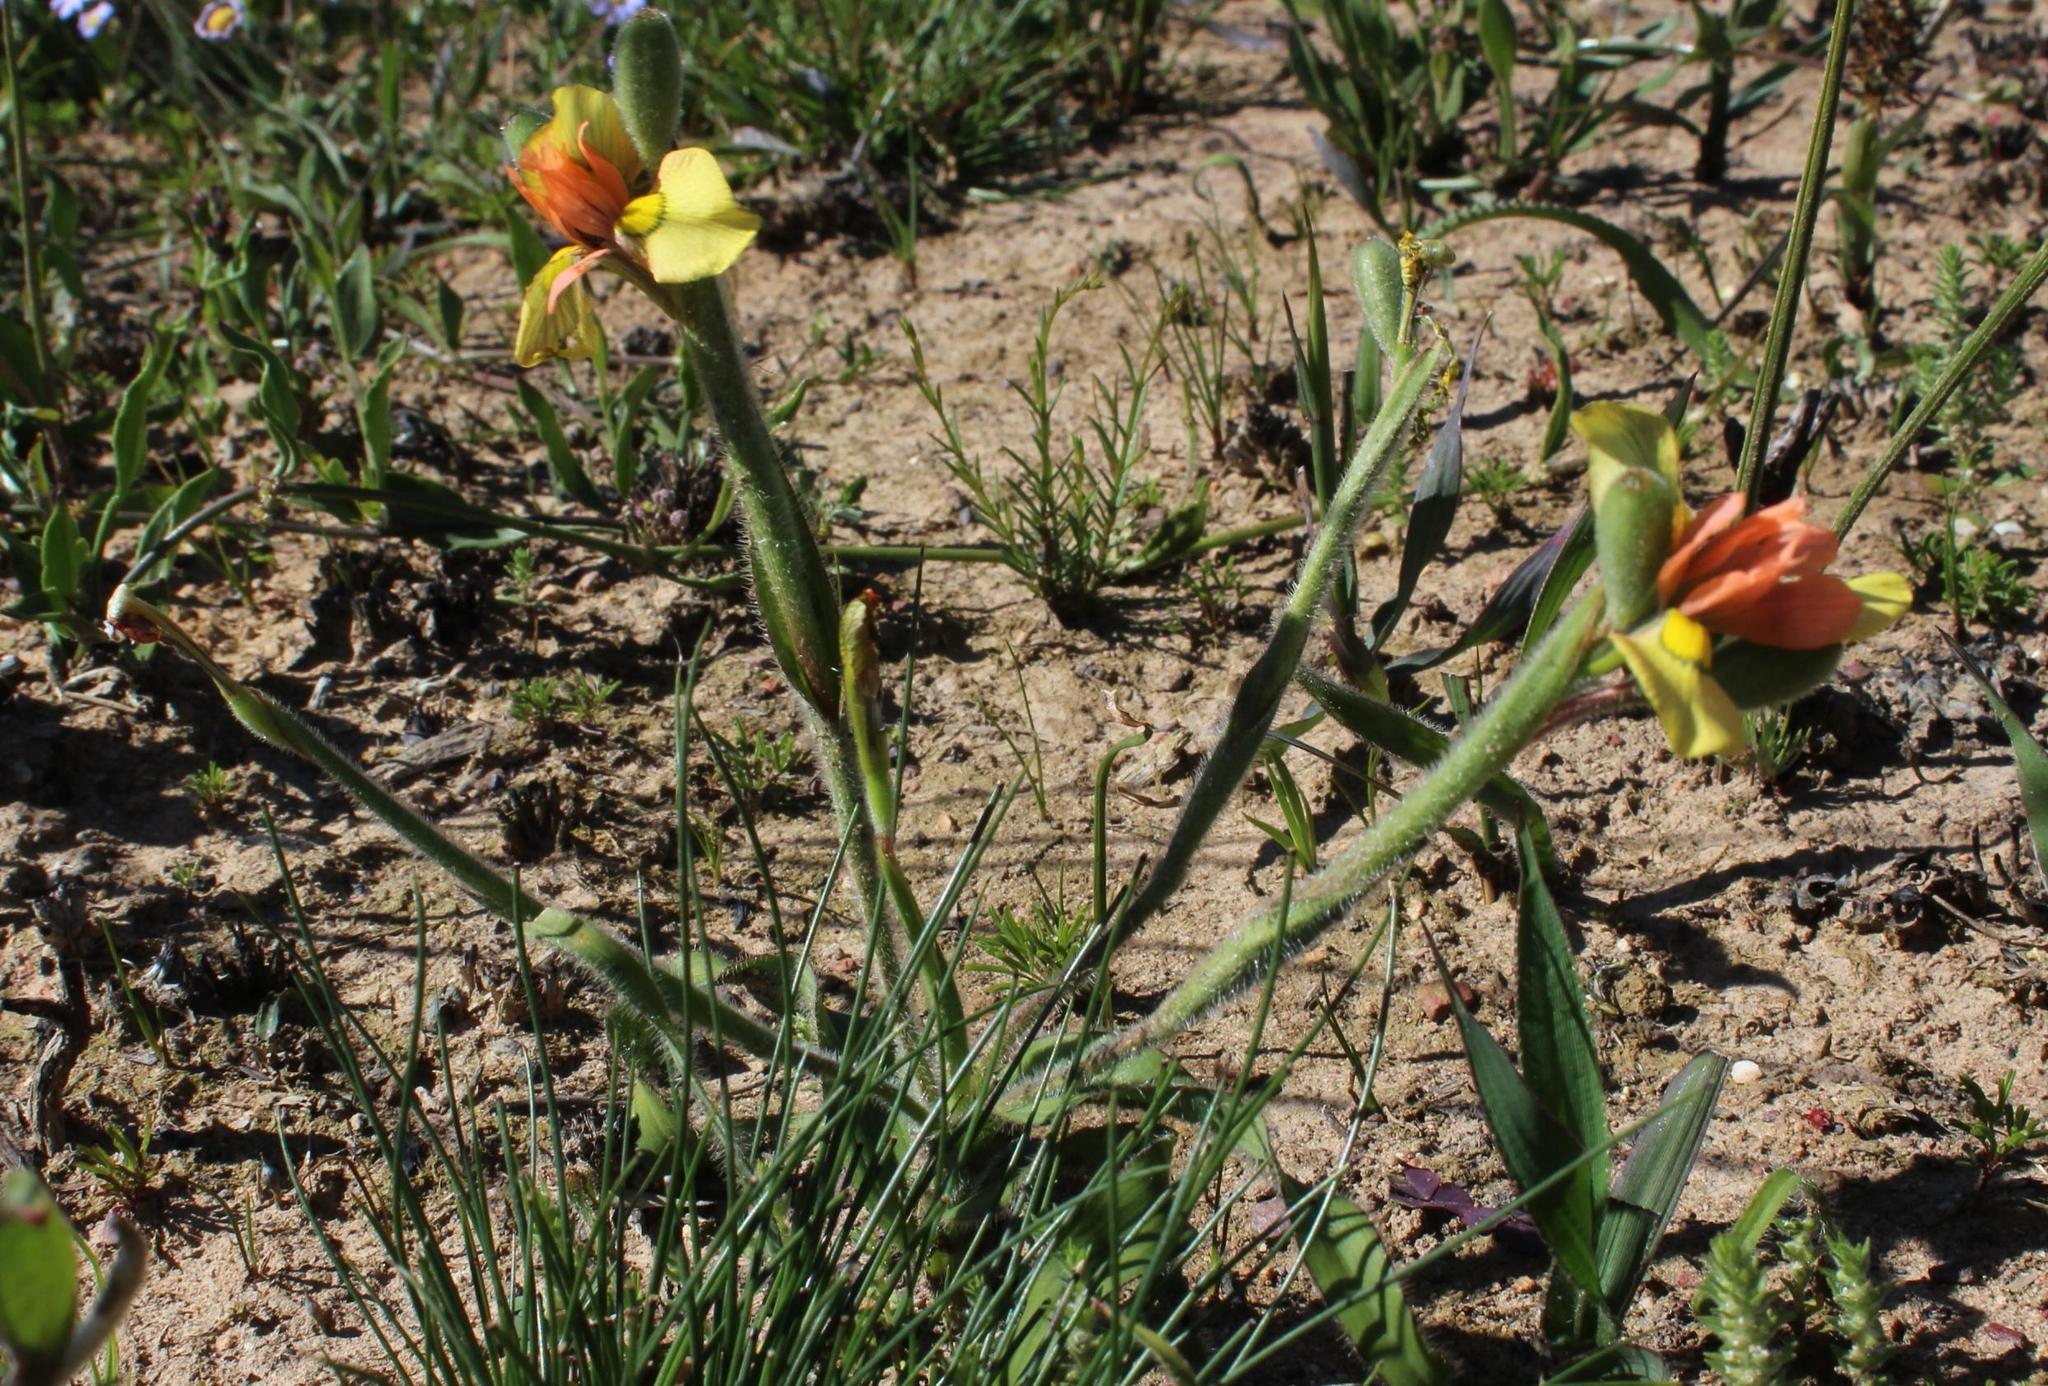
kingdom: Plantae
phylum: Tracheophyta
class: Liliopsida
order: Asparagales
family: Iridaceae
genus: Moraea
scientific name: Moraea papilionacea
